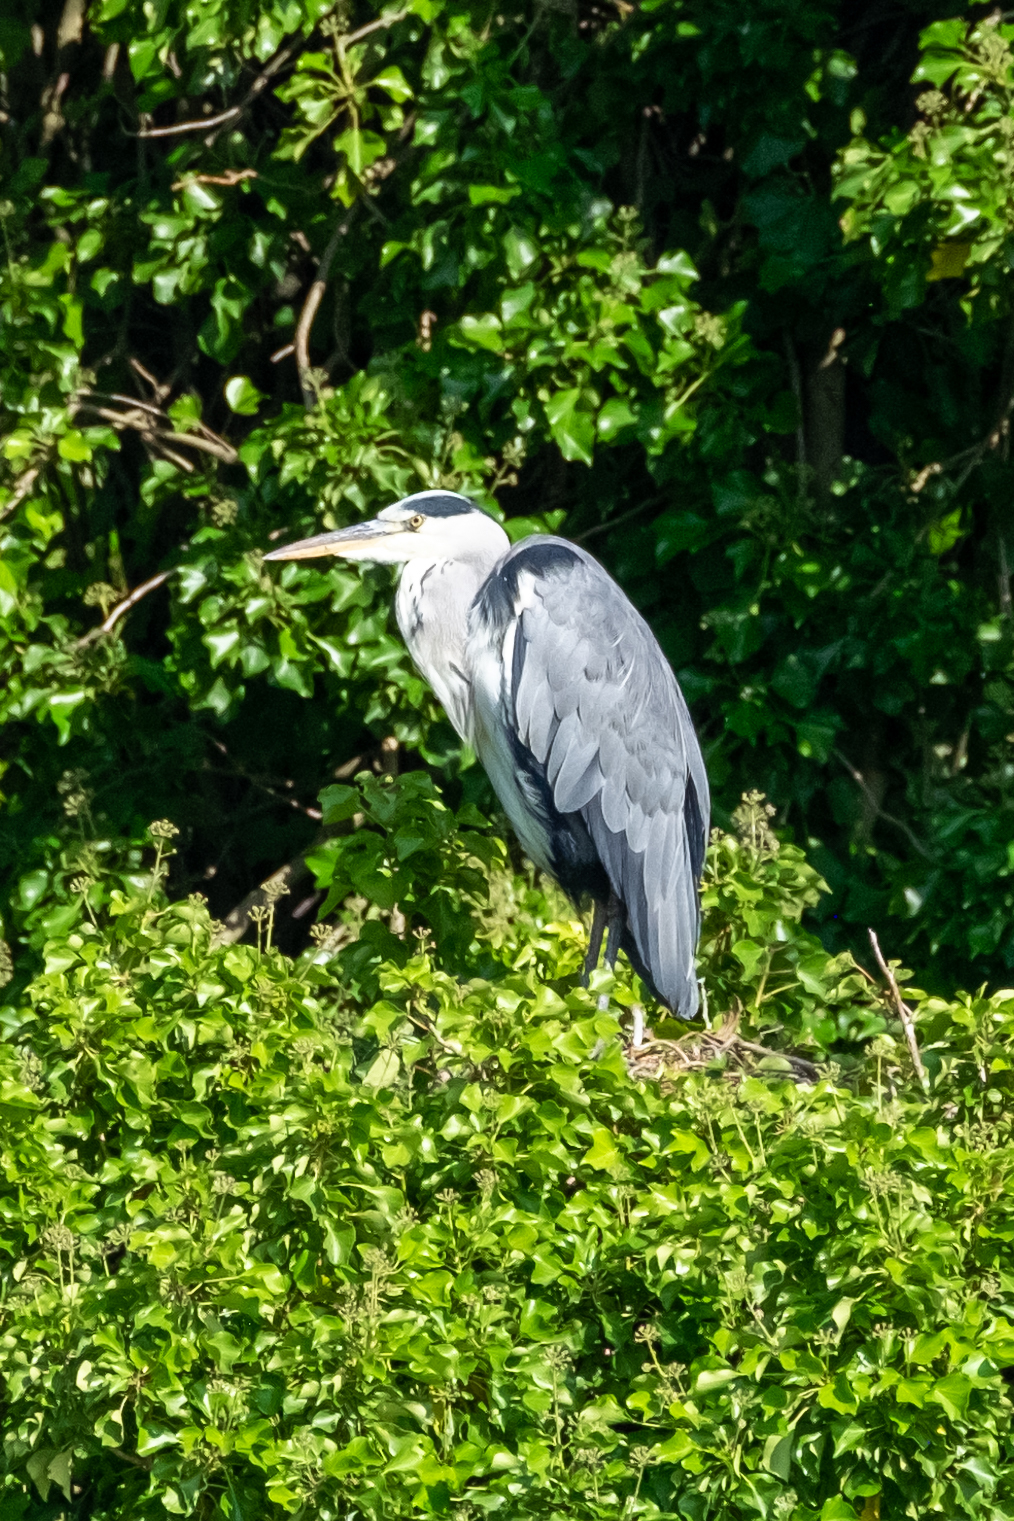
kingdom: Animalia
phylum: Chordata
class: Aves
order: Pelecaniformes
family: Ardeidae
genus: Ardea
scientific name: Ardea cinerea
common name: Grey heron
